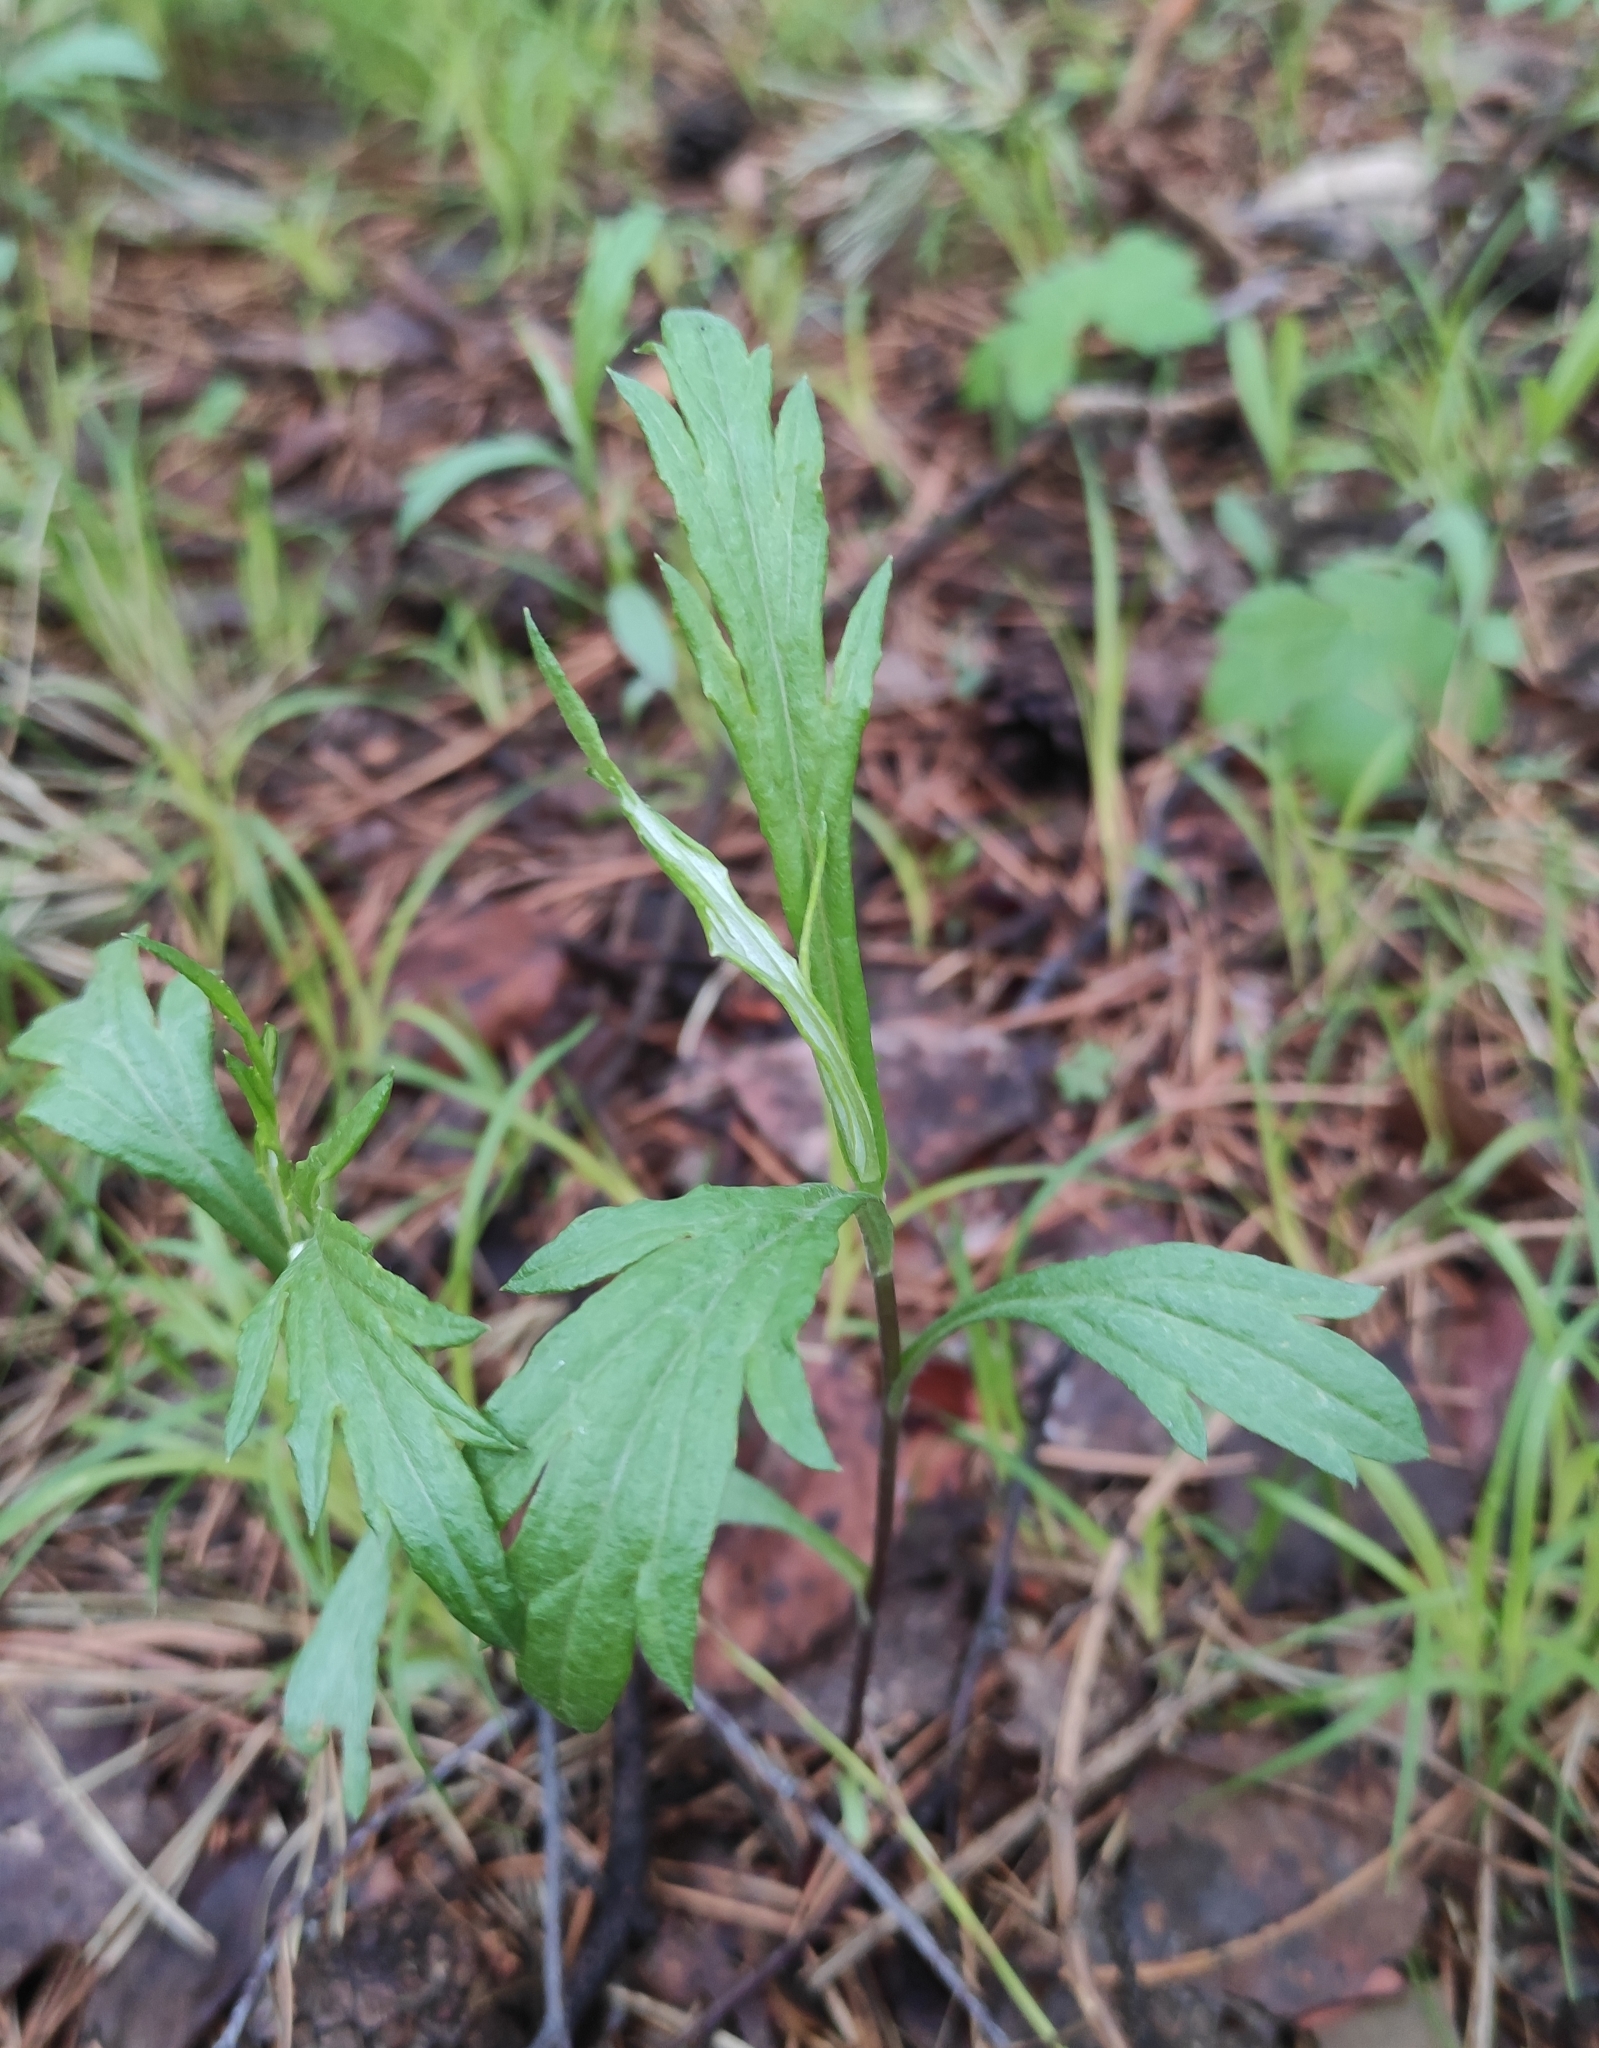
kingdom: Plantae
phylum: Tracheophyta
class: Magnoliopsida
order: Asterales
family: Asteraceae
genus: Artemisia
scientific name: Artemisia integrifolia
